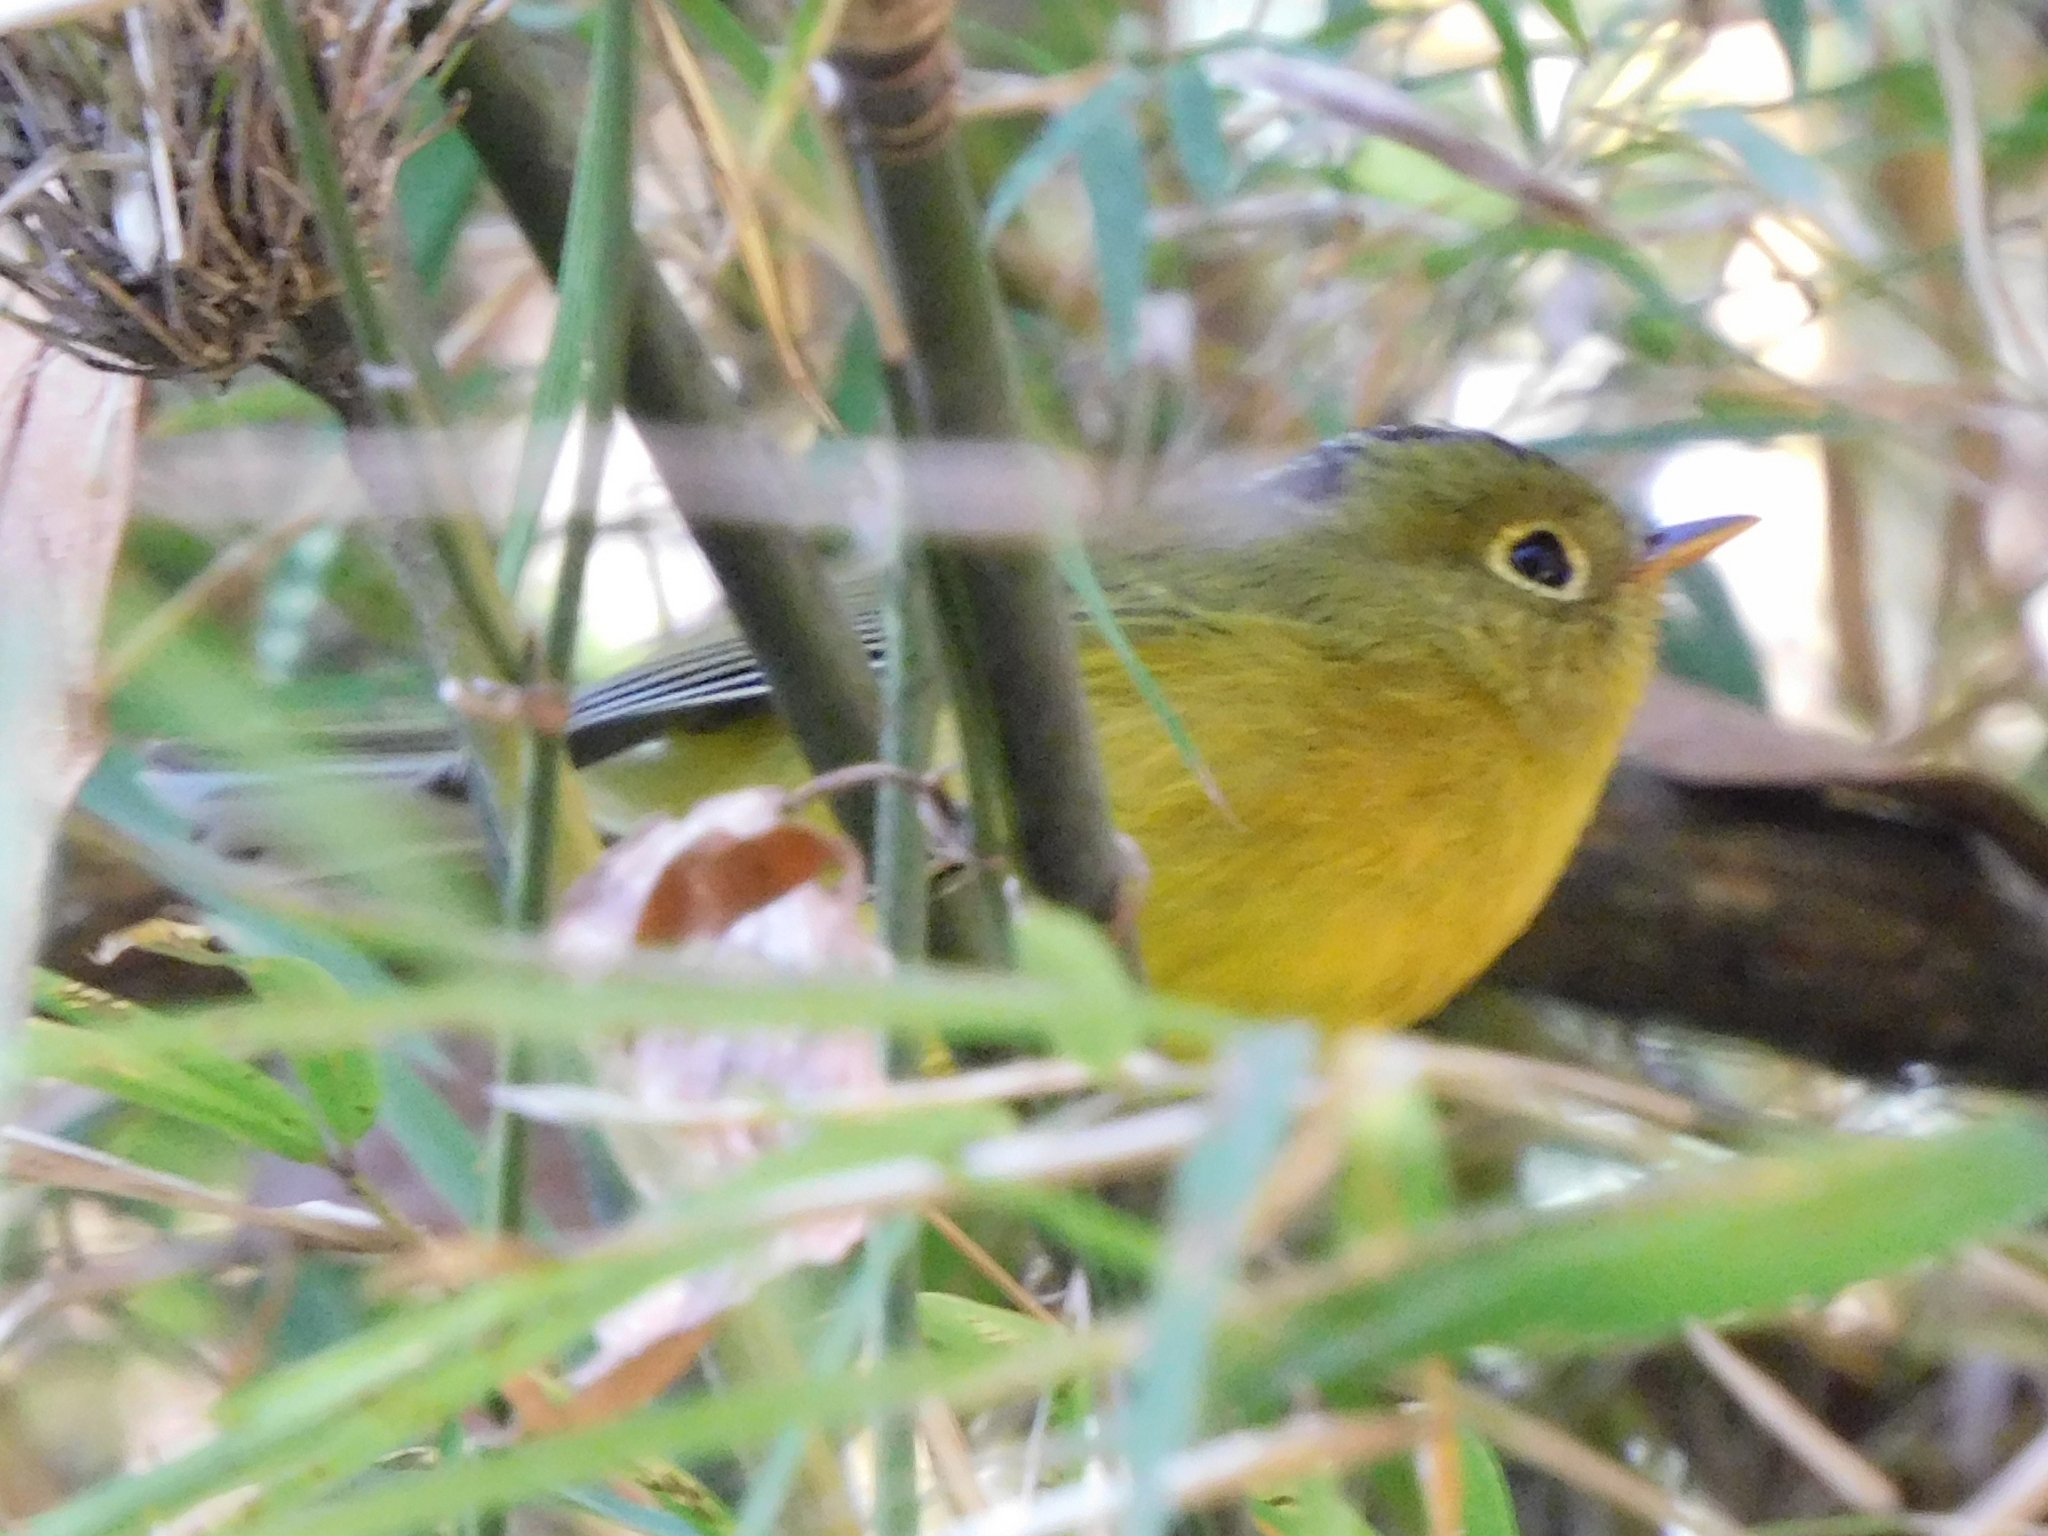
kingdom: Animalia
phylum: Chordata
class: Aves
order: Passeriformes
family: Phylloscopidae
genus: Seicercus
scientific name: Seicercus whistleri
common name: Whistler's warbler
